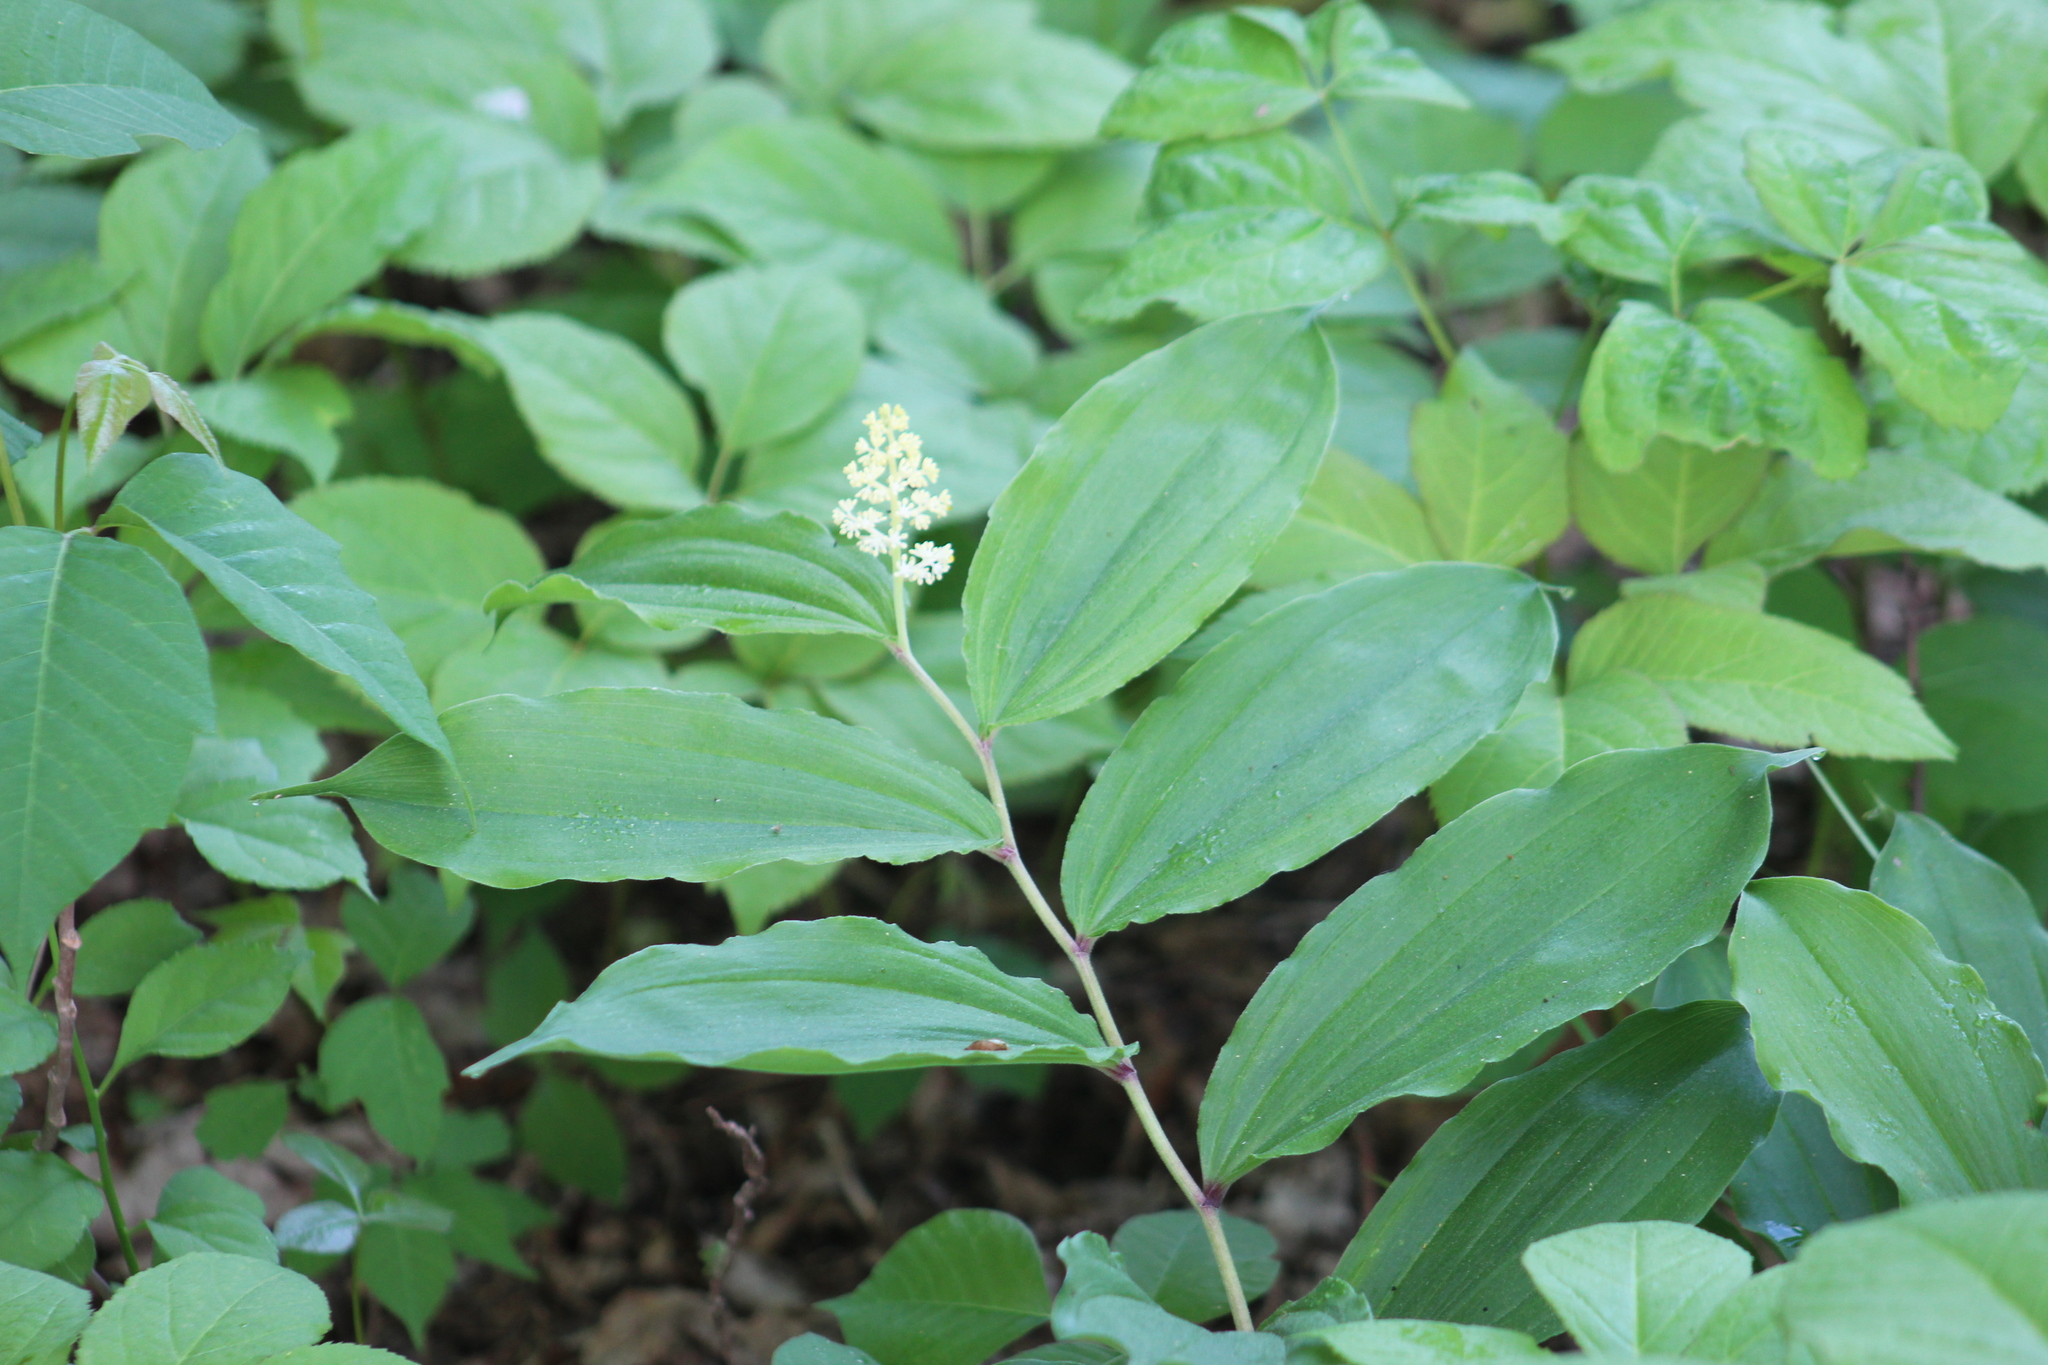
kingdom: Plantae
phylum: Tracheophyta
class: Liliopsida
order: Asparagales
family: Asparagaceae
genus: Maianthemum
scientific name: Maianthemum racemosum
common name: False spikenard
